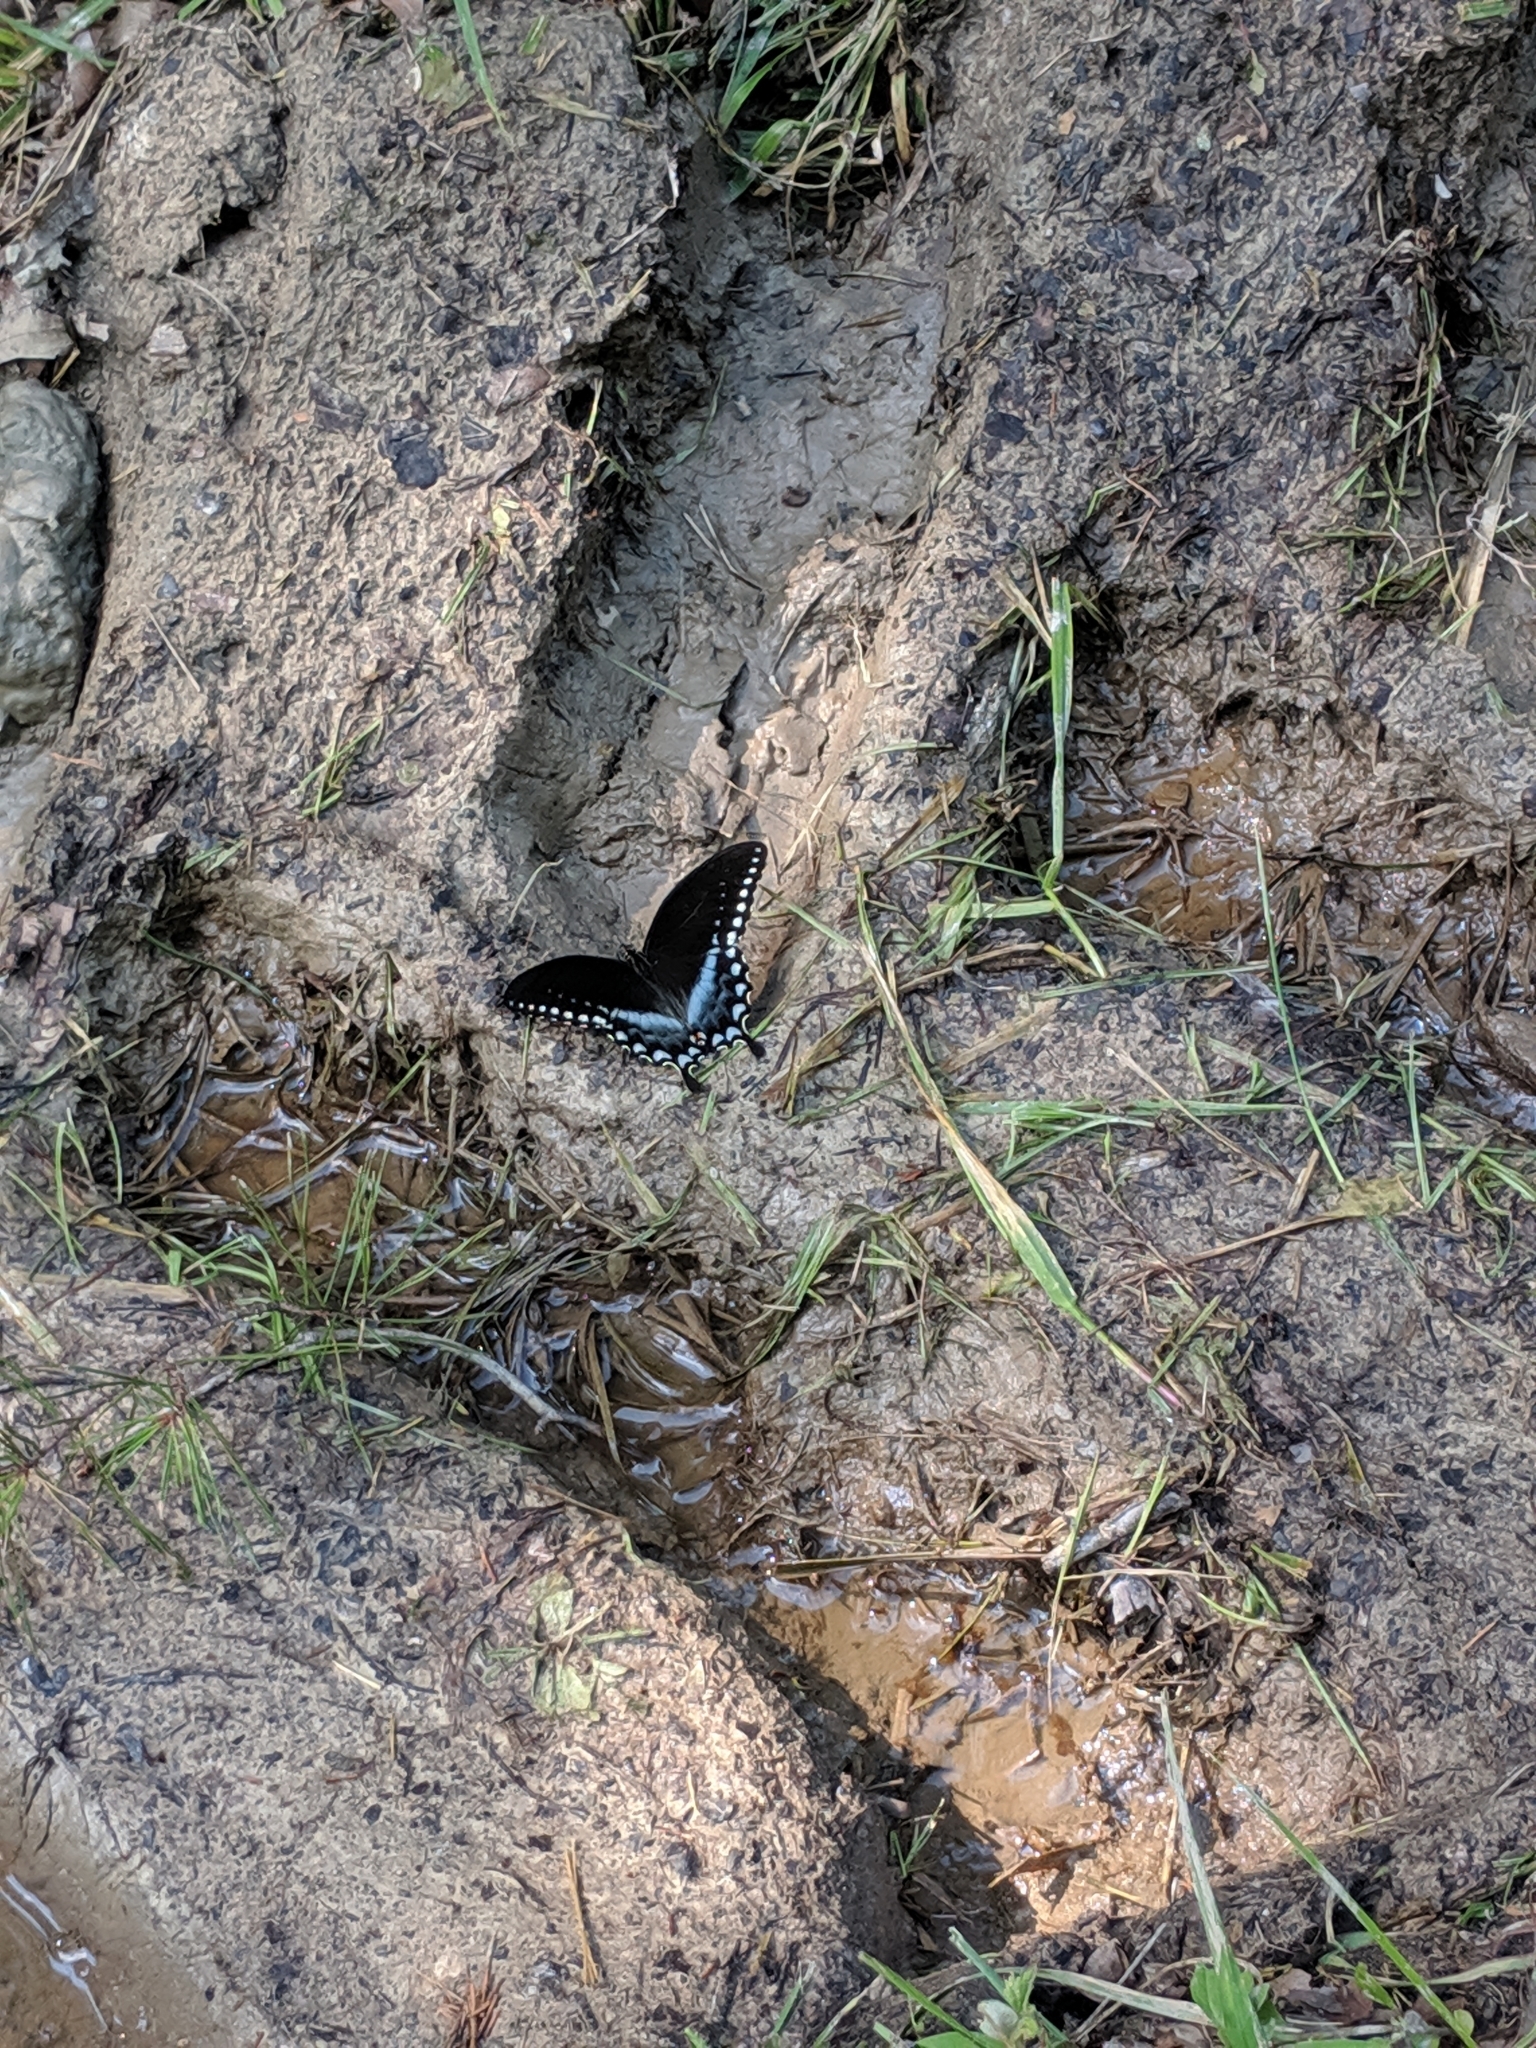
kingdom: Animalia
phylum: Arthropoda
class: Insecta
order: Lepidoptera
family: Papilionidae
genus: Papilio
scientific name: Papilio troilus
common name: Spicebush swallowtail
